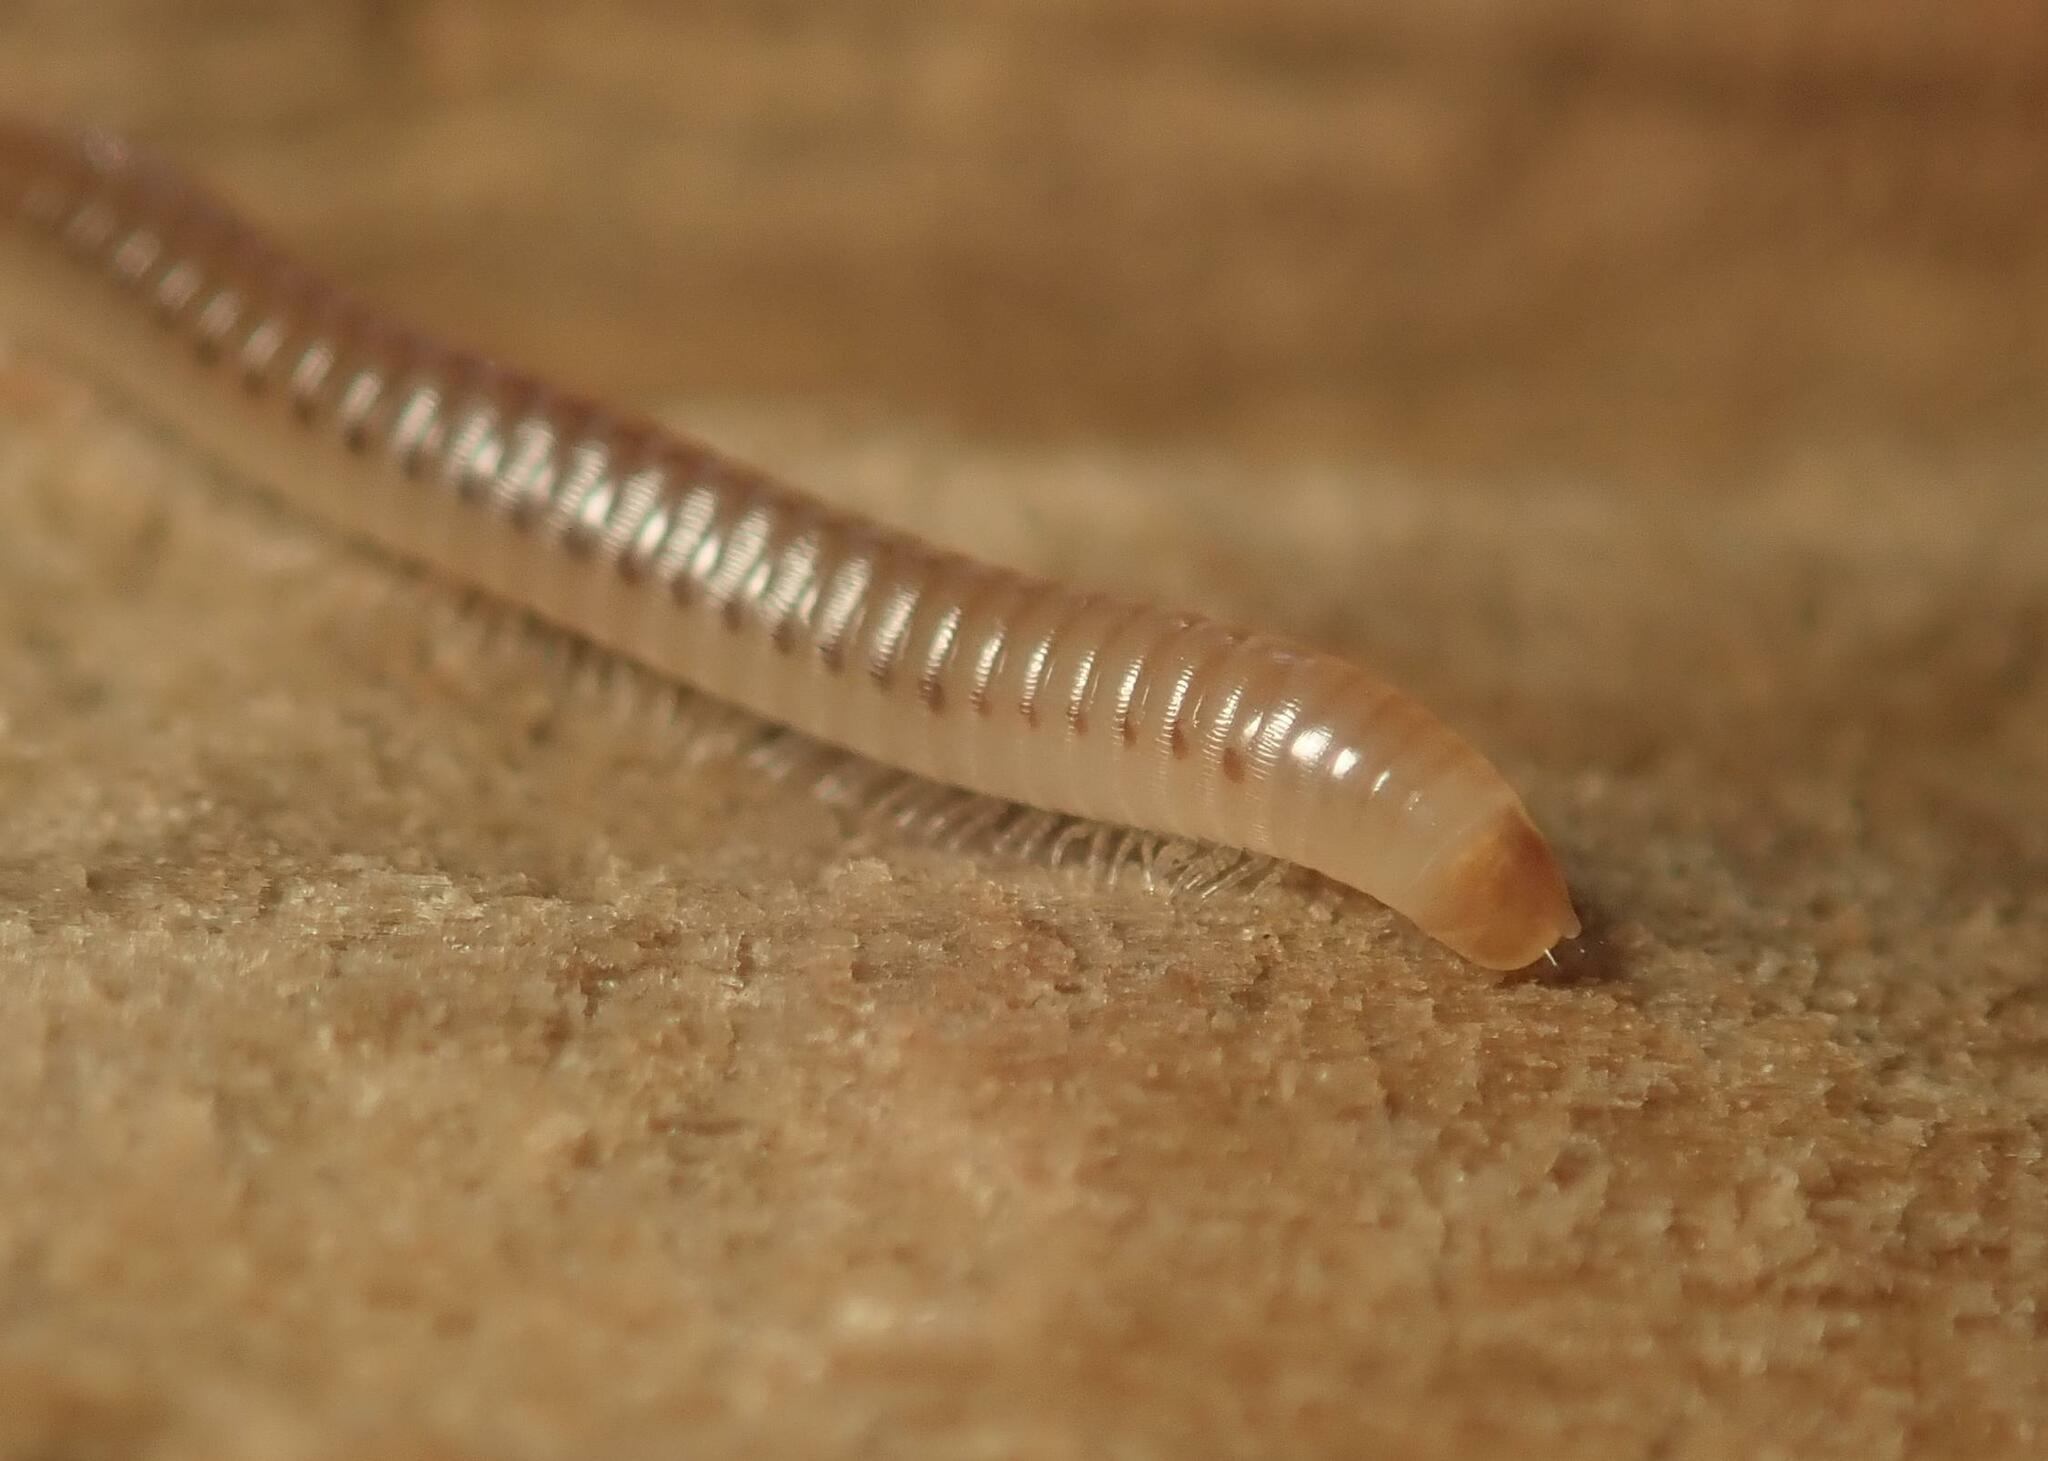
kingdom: Animalia
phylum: Arthropoda
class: Diplopoda
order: Julida
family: Julidae
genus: Cylindroiulus
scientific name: Cylindroiulus punctatus
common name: Blunt-tailed millipede
